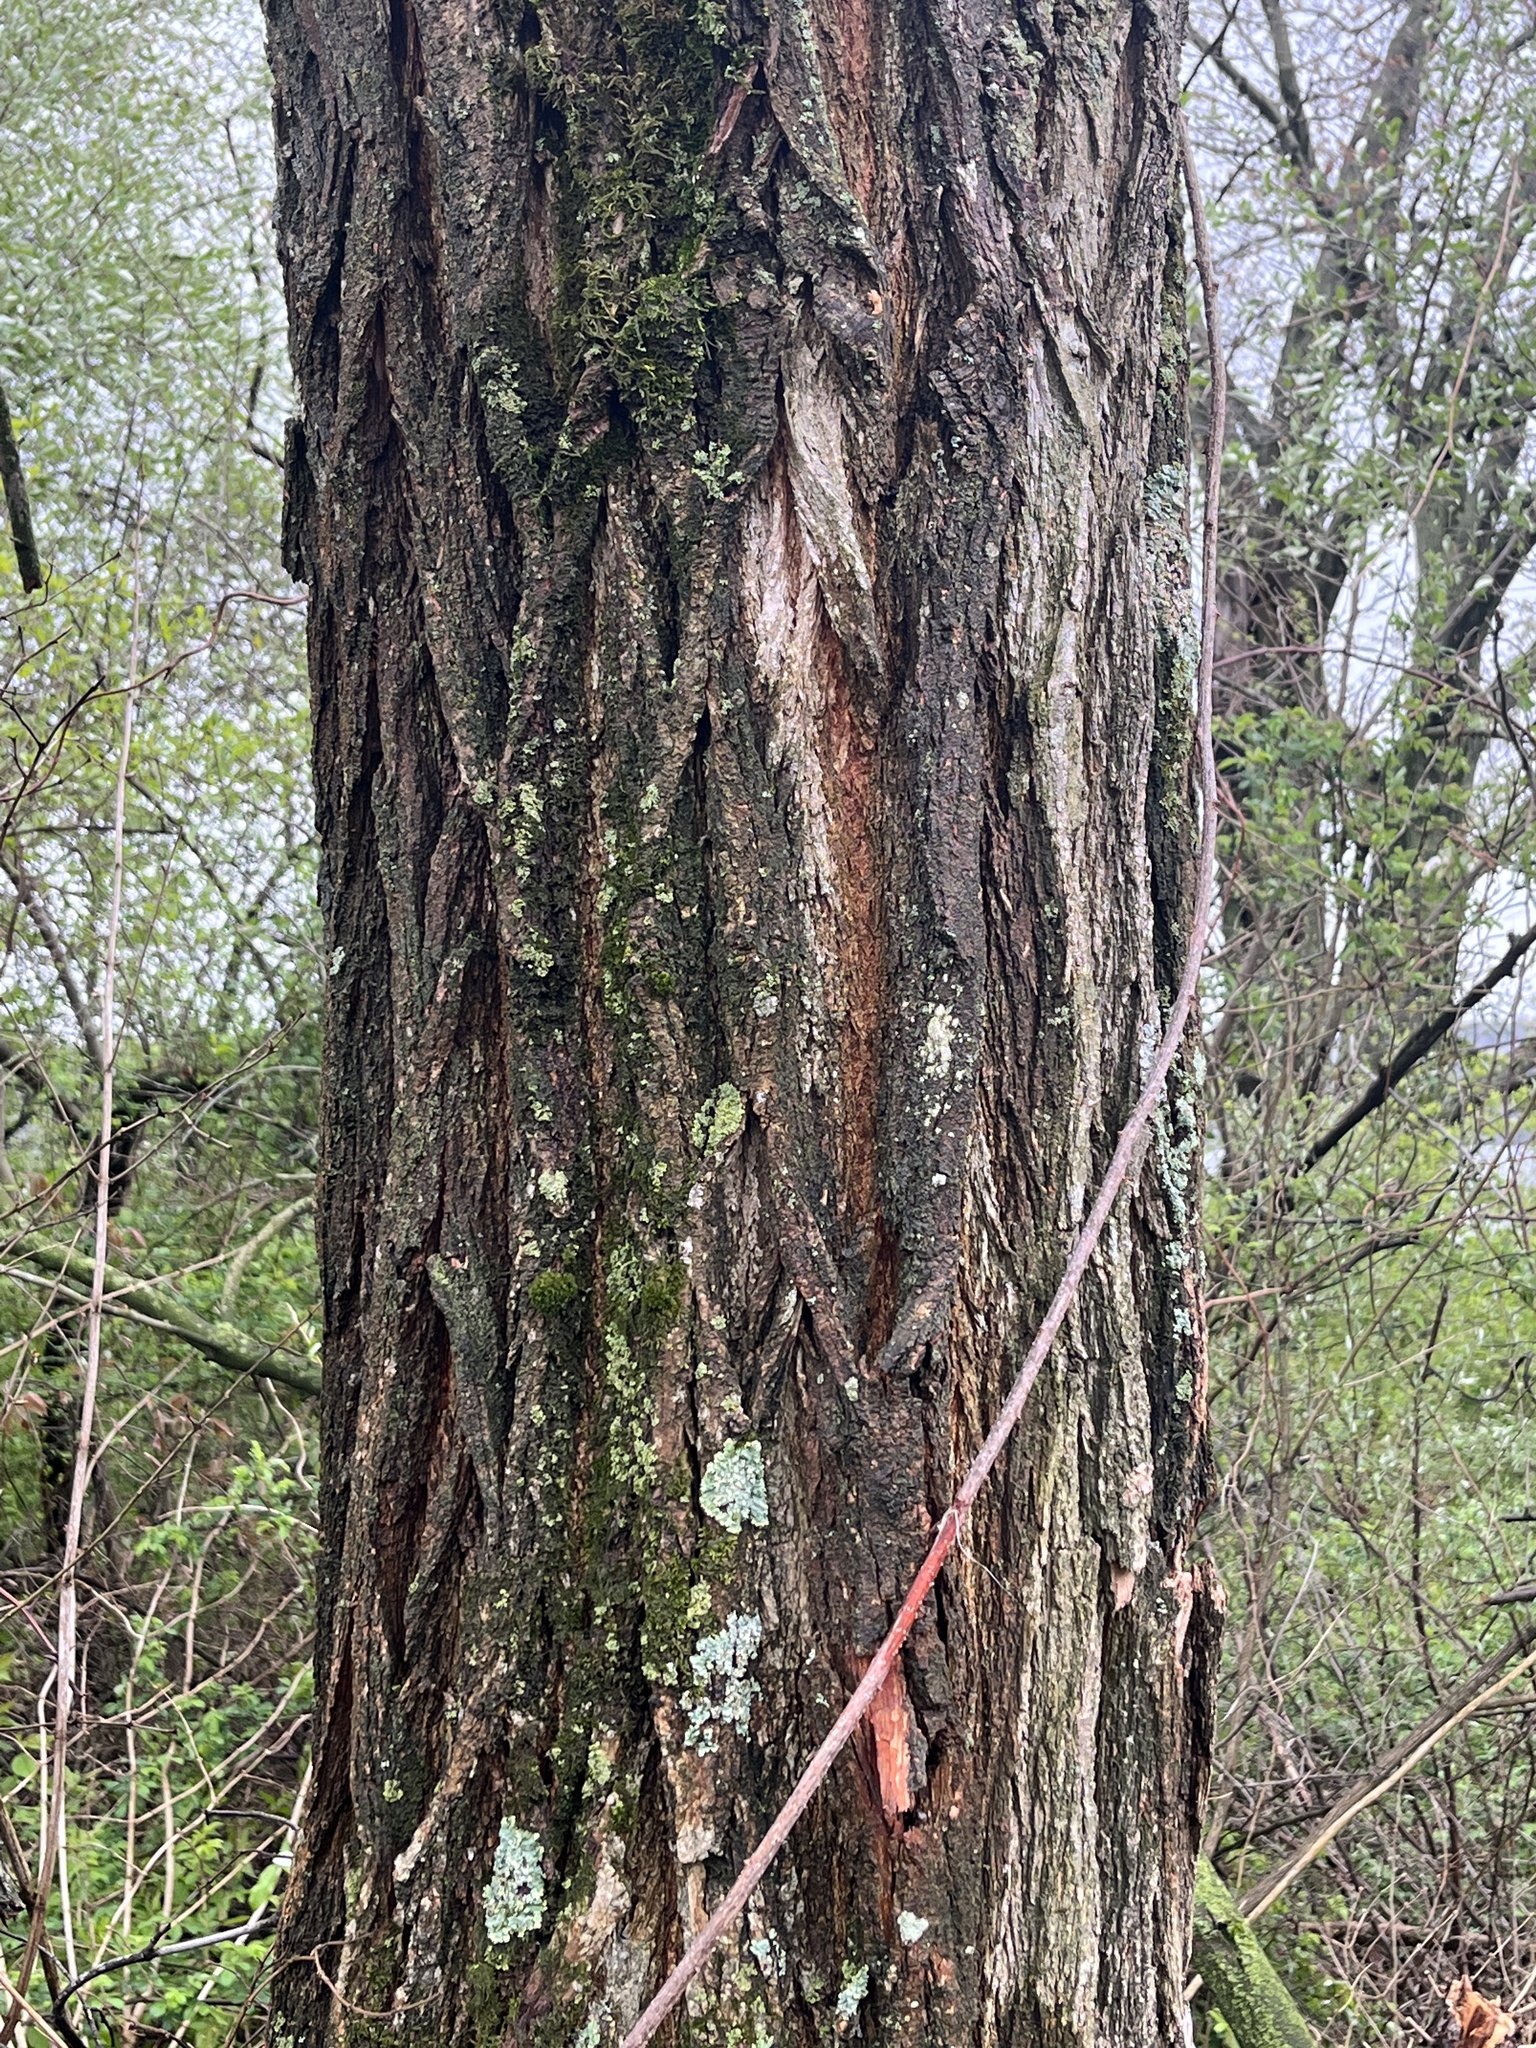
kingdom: Plantae
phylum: Tracheophyta
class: Magnoliopsida
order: Fabales
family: Fabaceae
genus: Robinia
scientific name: Robinia pseudoacacia
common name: Black locust
